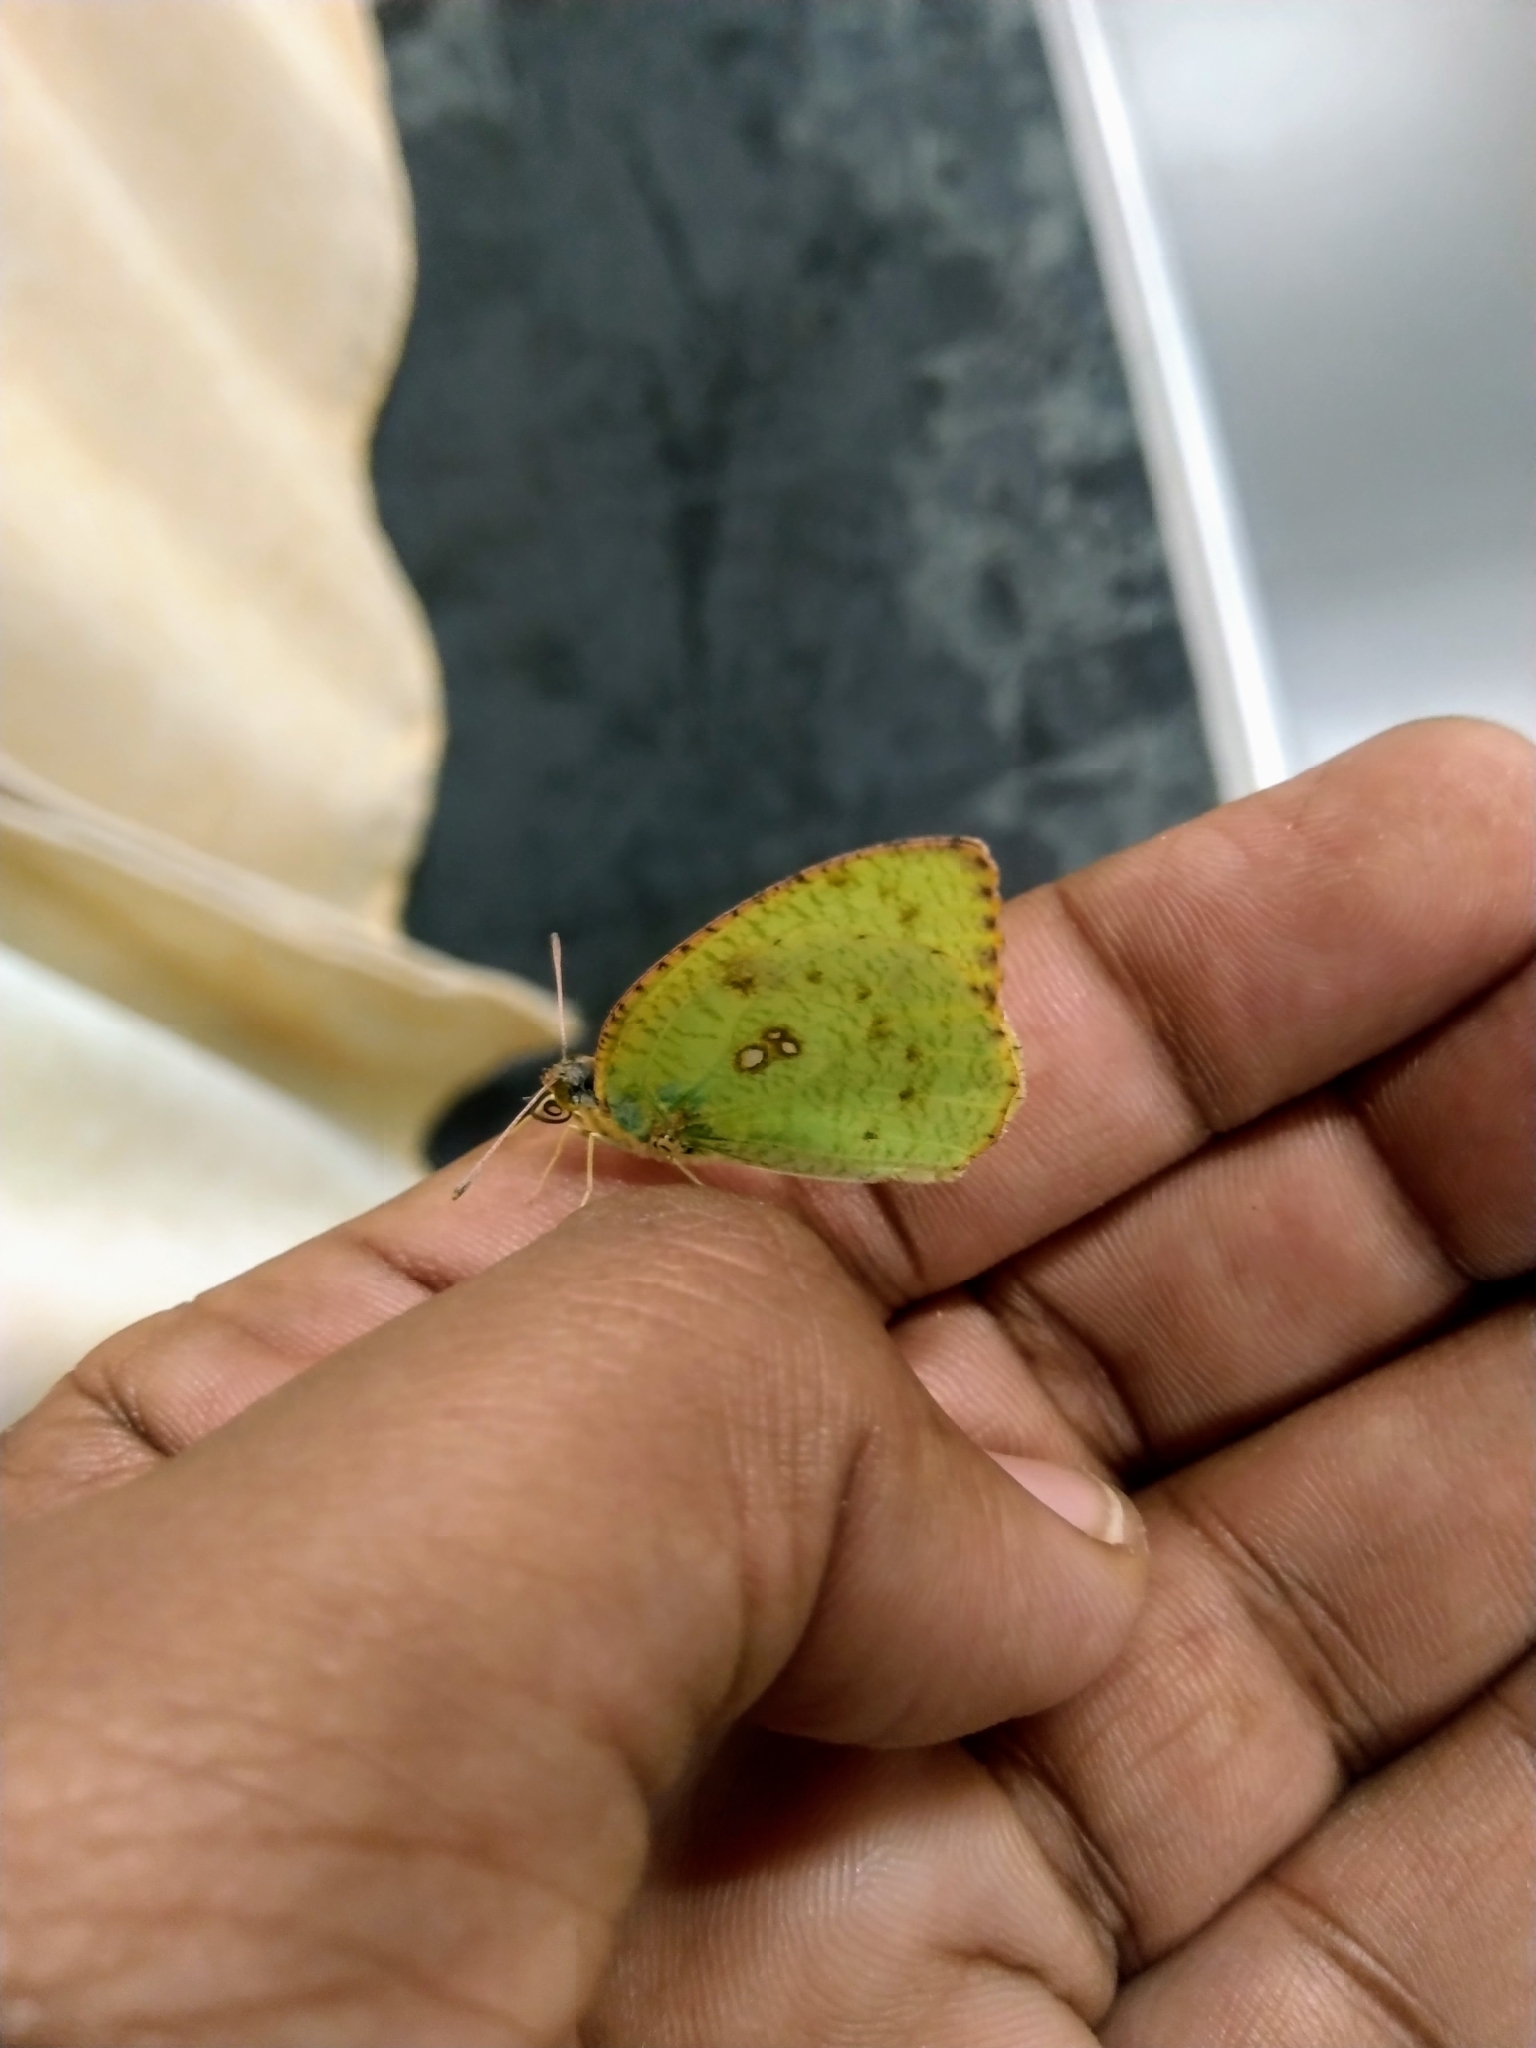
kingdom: Animalia
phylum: Arthropoda
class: Insecta
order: Lepidoptera
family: Pieridae
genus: Catopsilia
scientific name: Catopsilia pyranthe
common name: Mottled emigrant
